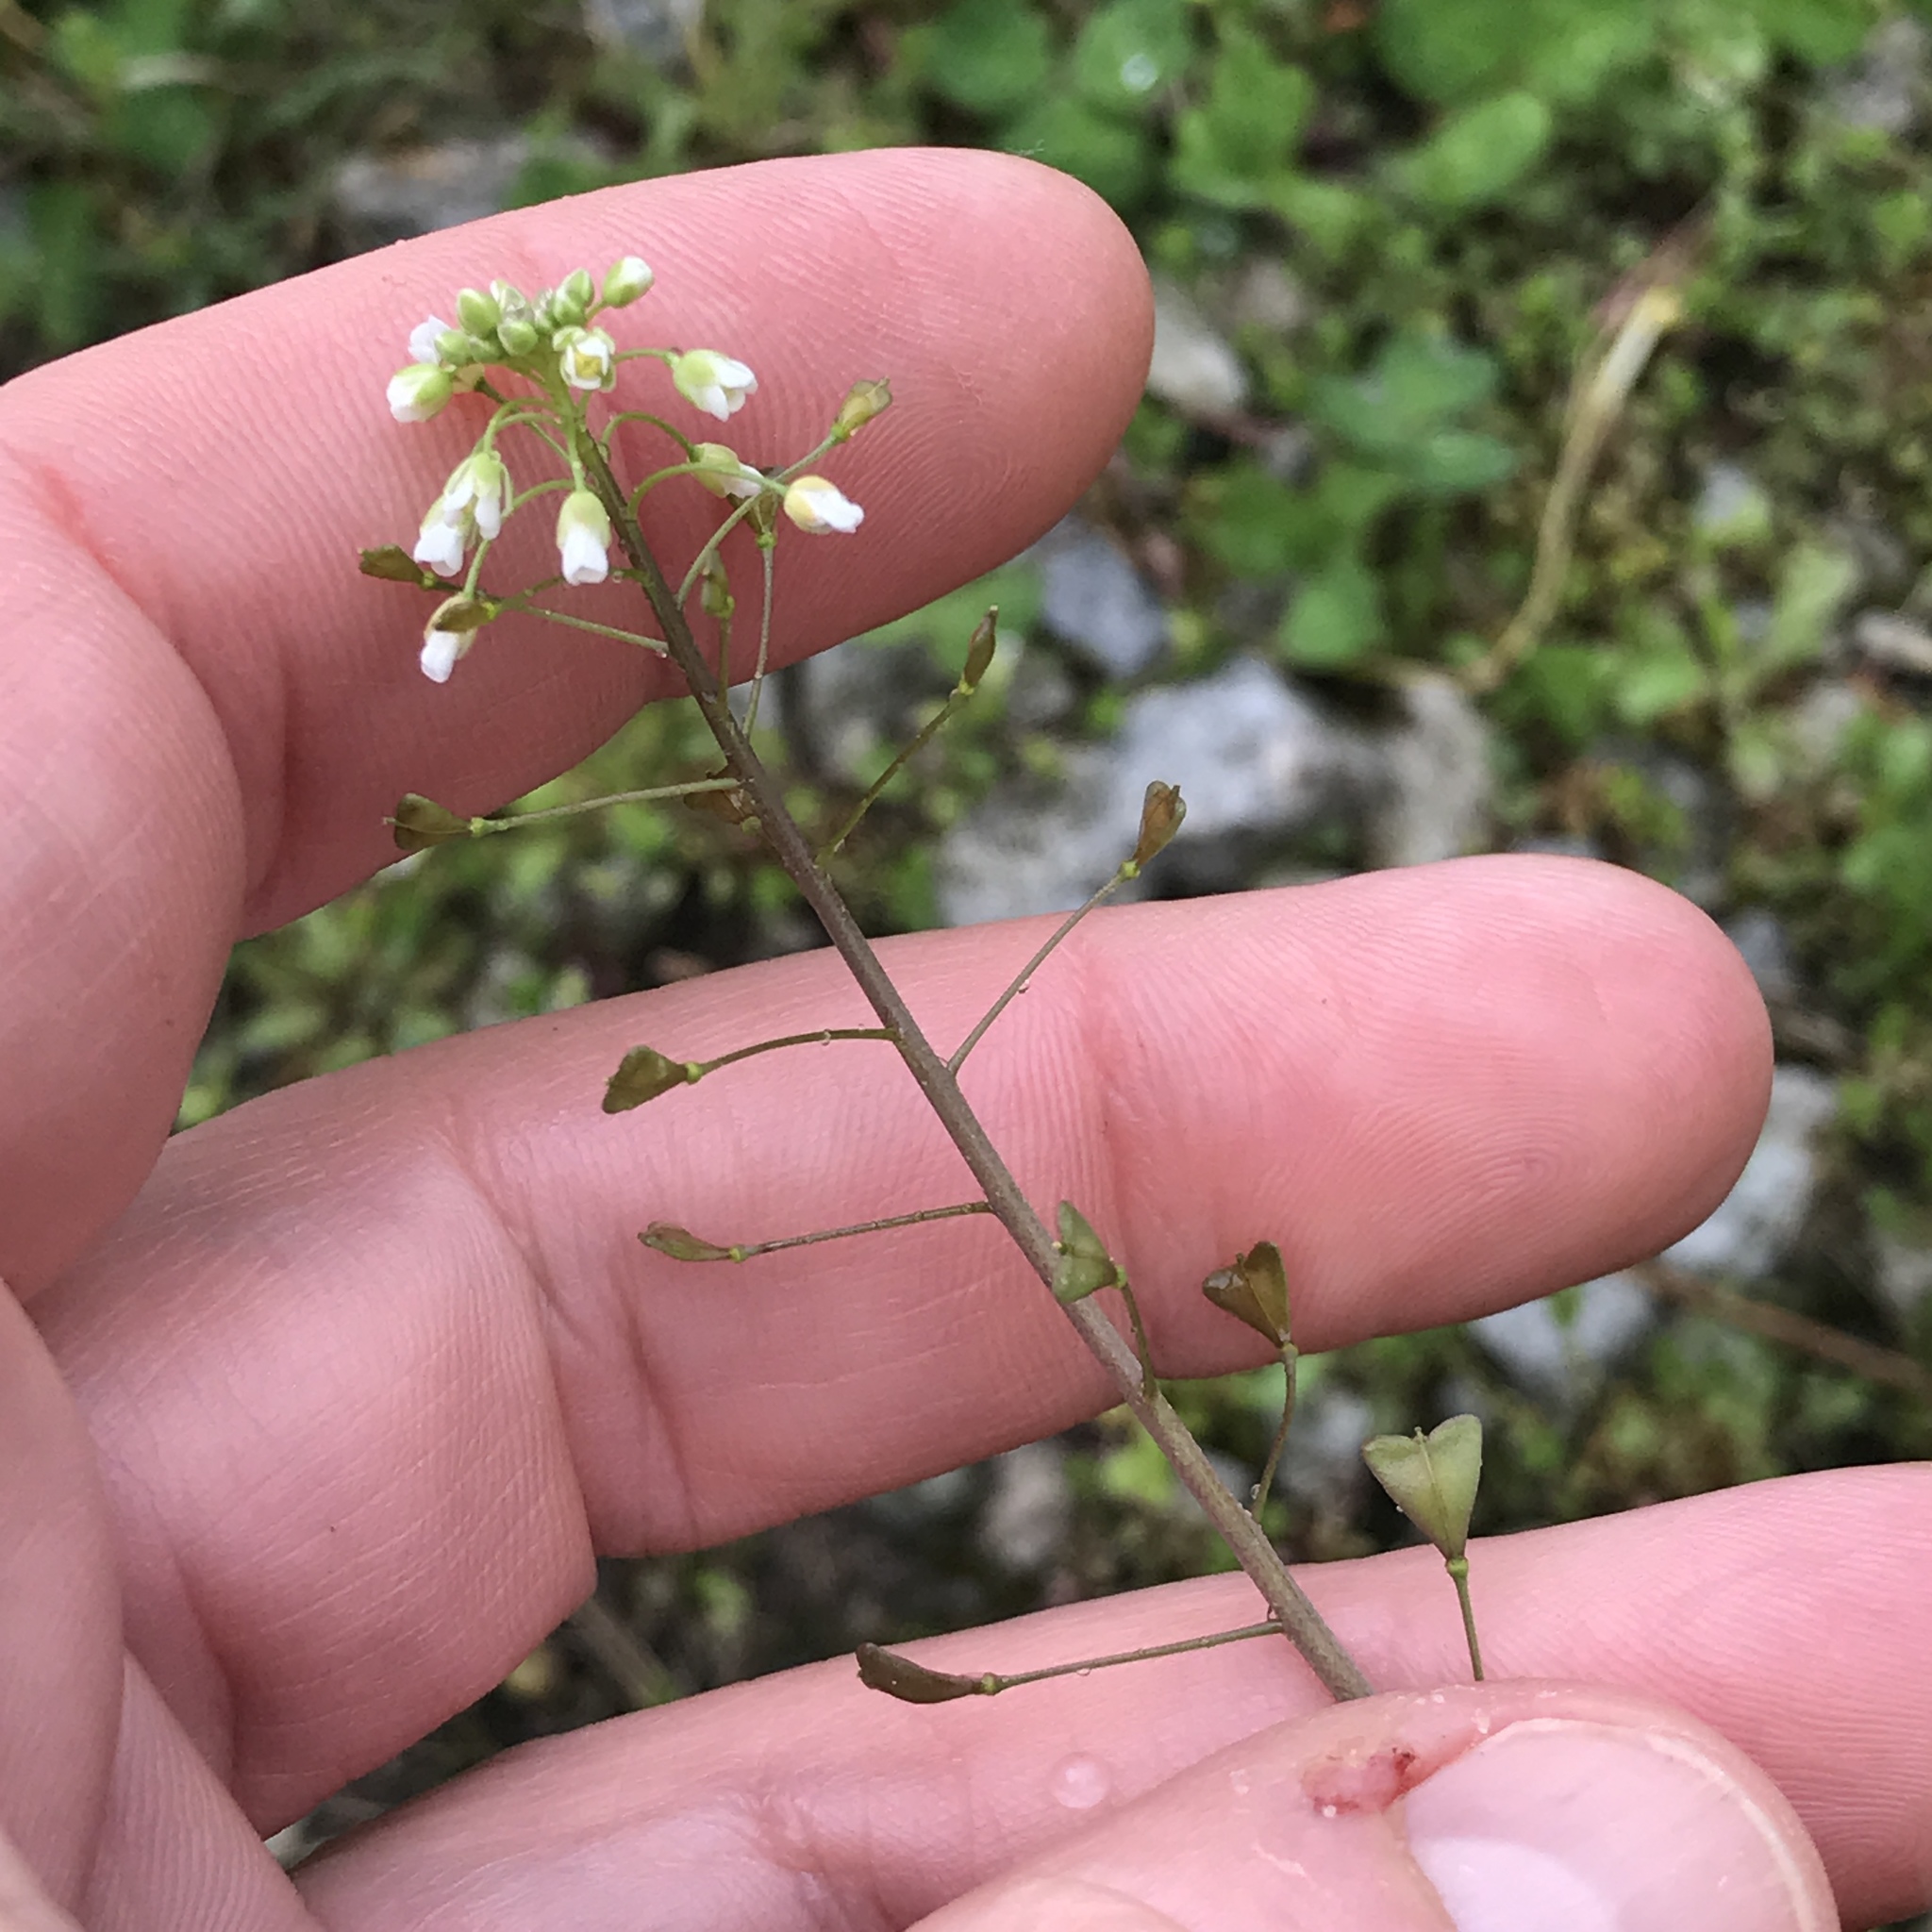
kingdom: Plantae
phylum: Tracheophyta
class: Magnoliopsida
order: Brassicales
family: Brassicaceae
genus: Capsella
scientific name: Capsella bursa-pastoris
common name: Shepherd's purse
